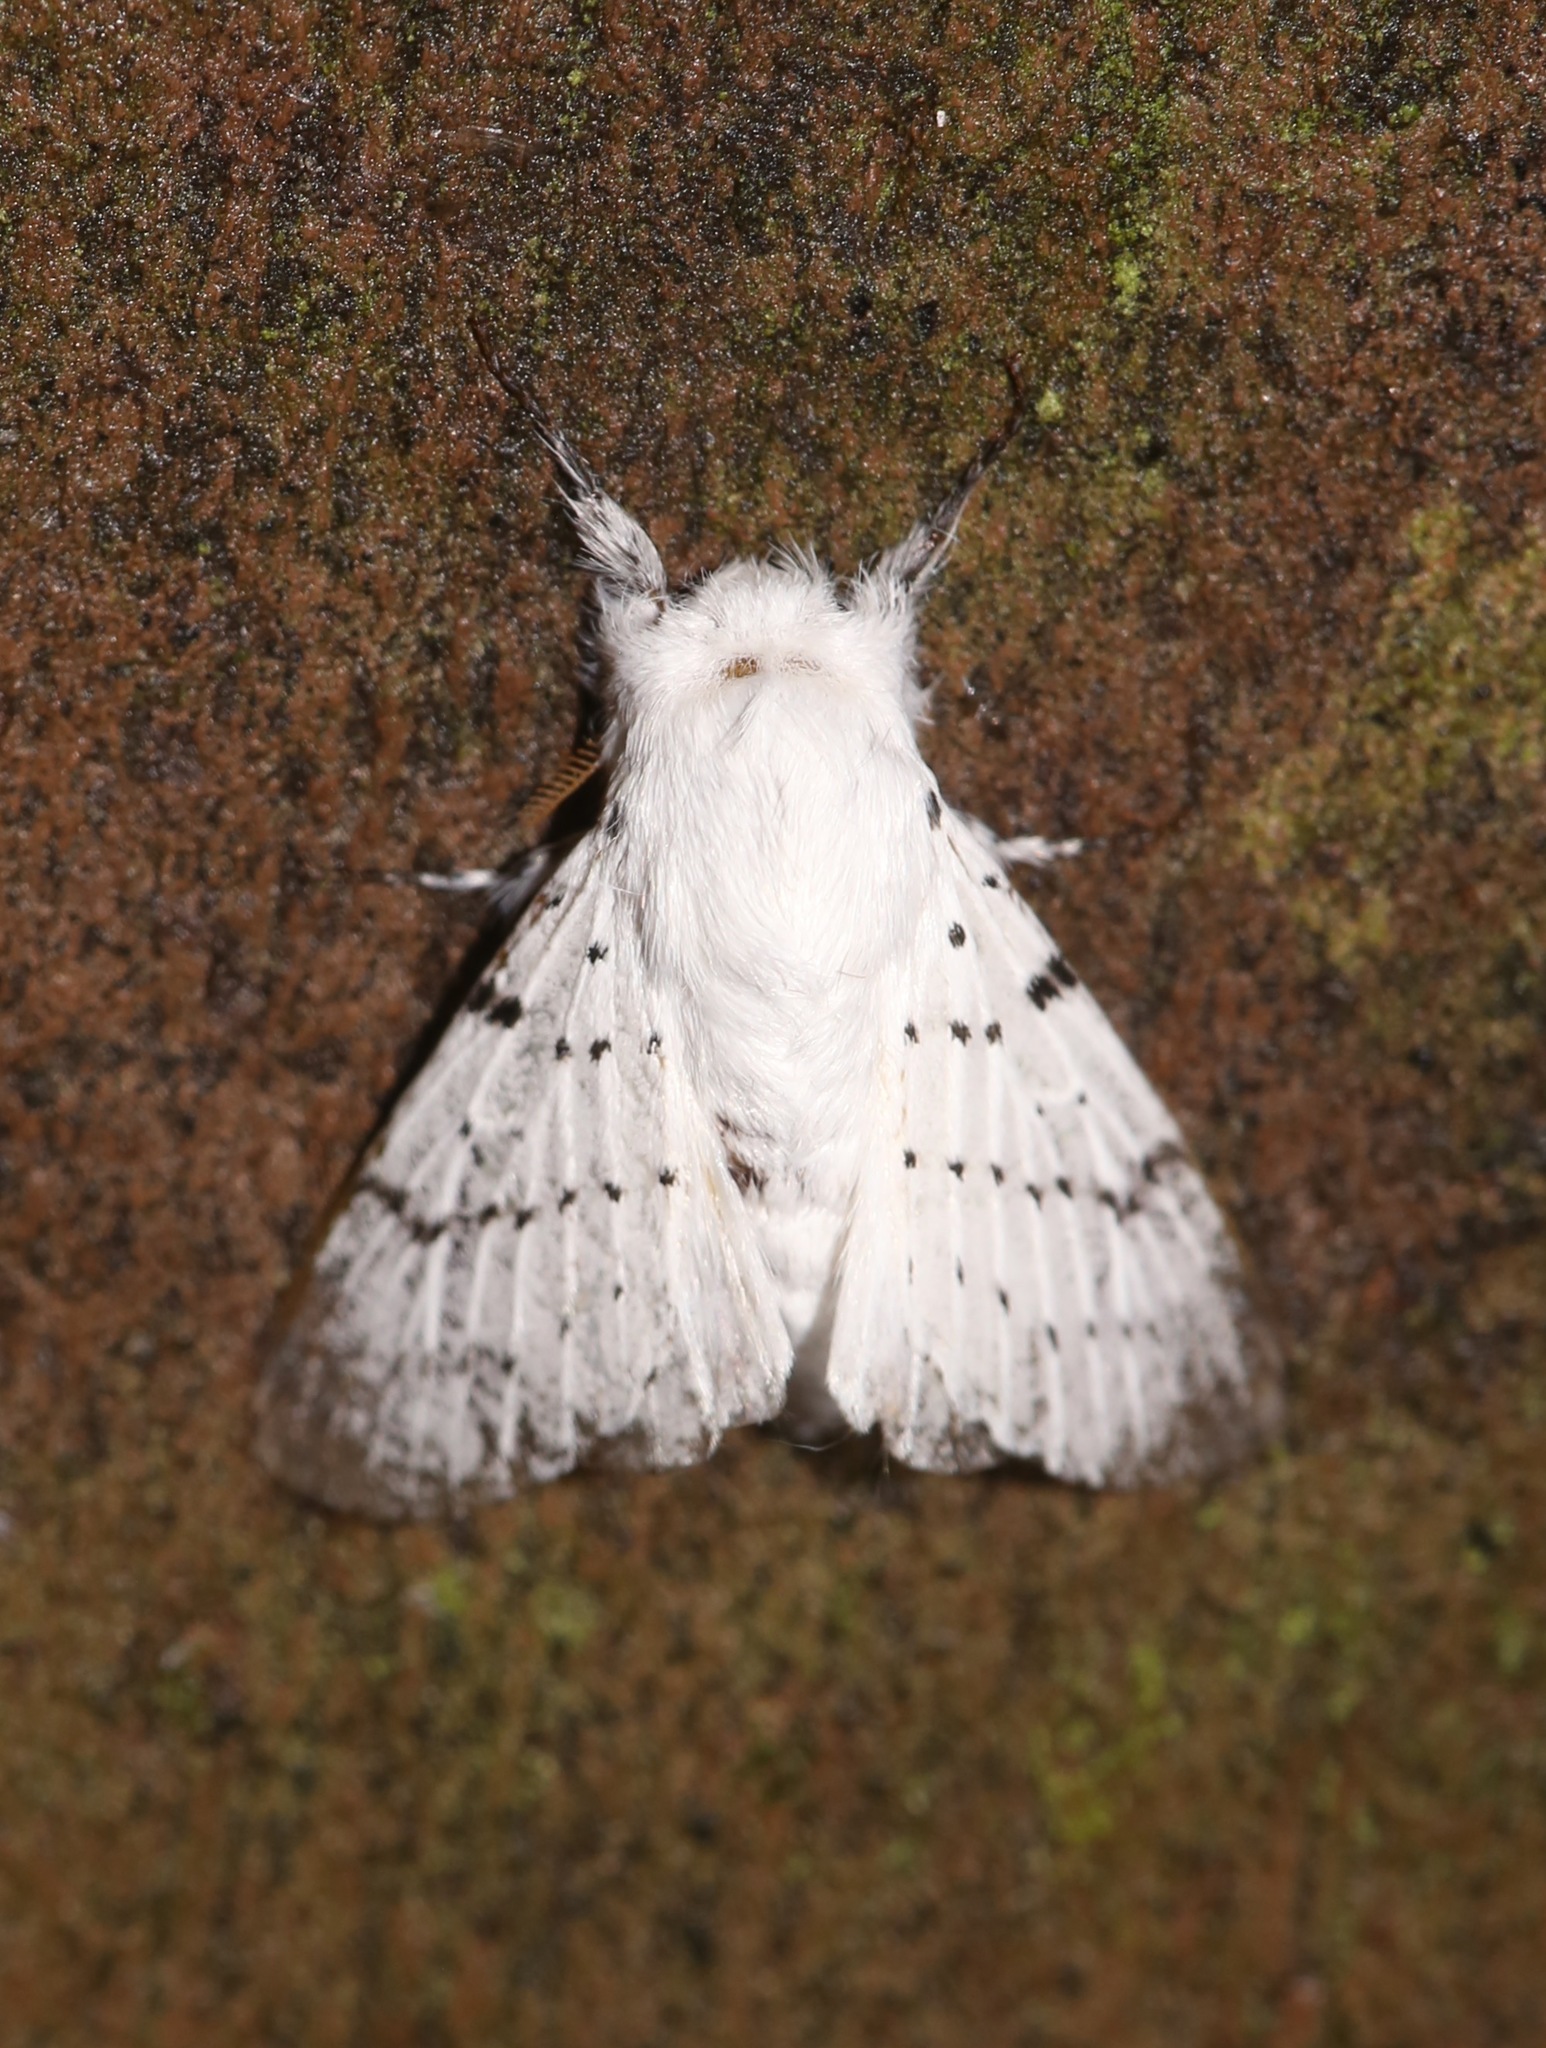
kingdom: Animalia
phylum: Arthropoda
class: Insecta
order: Lepidoptera
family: Lasiocampidae
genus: Artace
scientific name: Artace cribrarius
